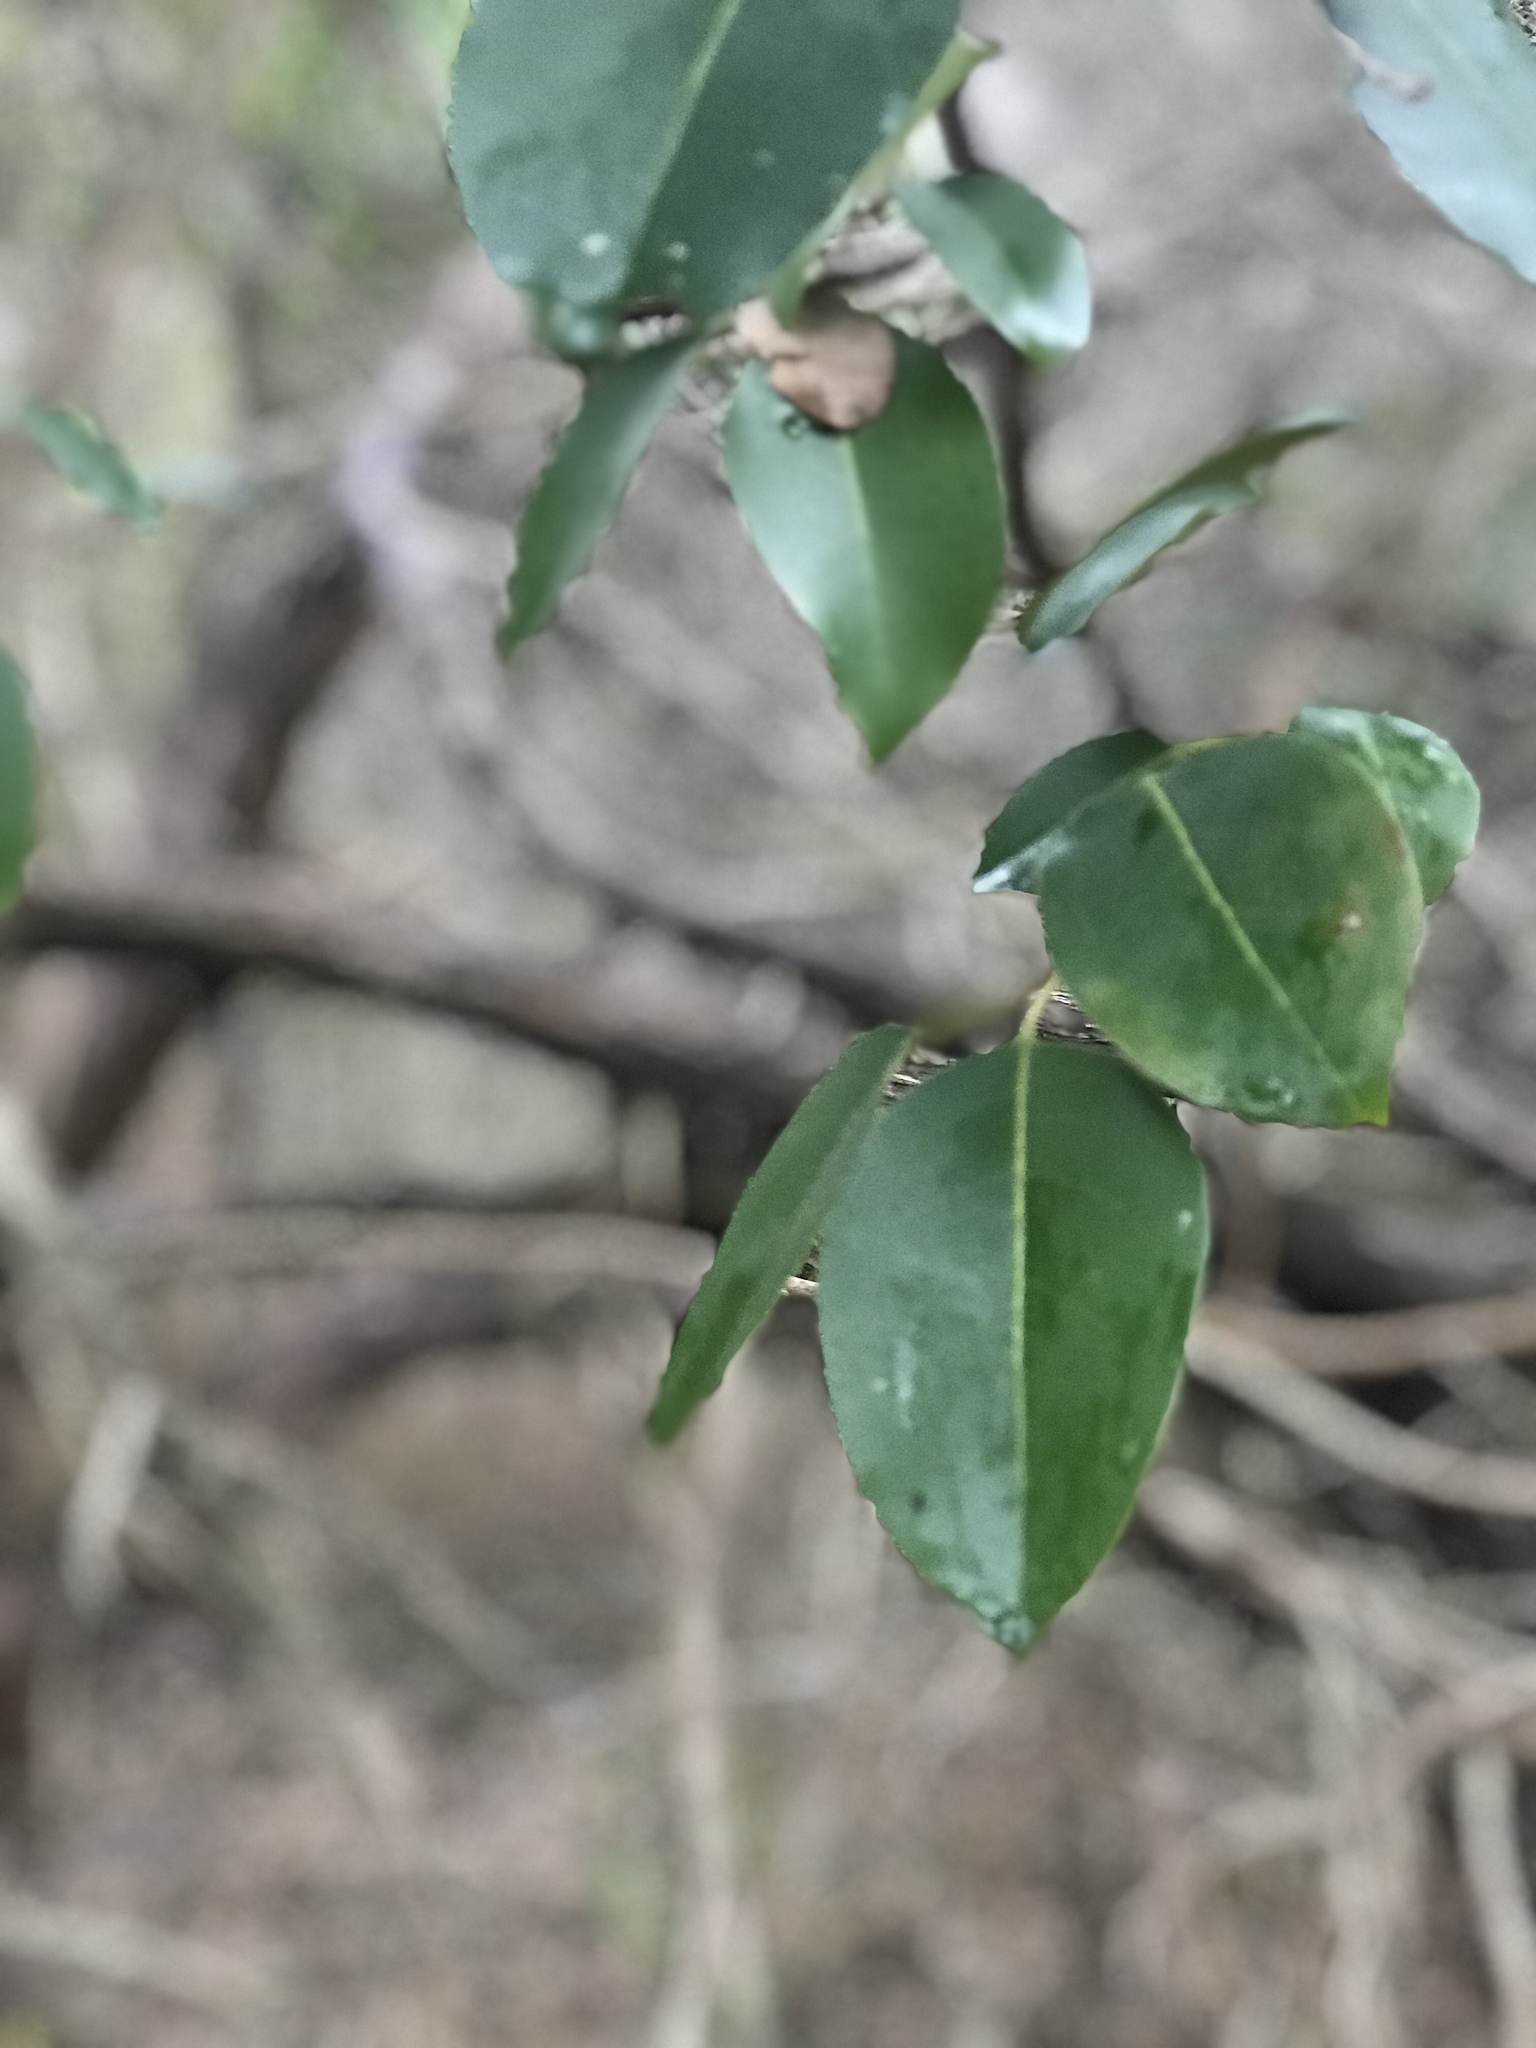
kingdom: Plantae
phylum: Tracheophyta
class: Magnoliopsida
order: Lamiales
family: Oleaceae
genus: Ligustrum
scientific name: Ligustrum lucidum
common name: Glossy privet
